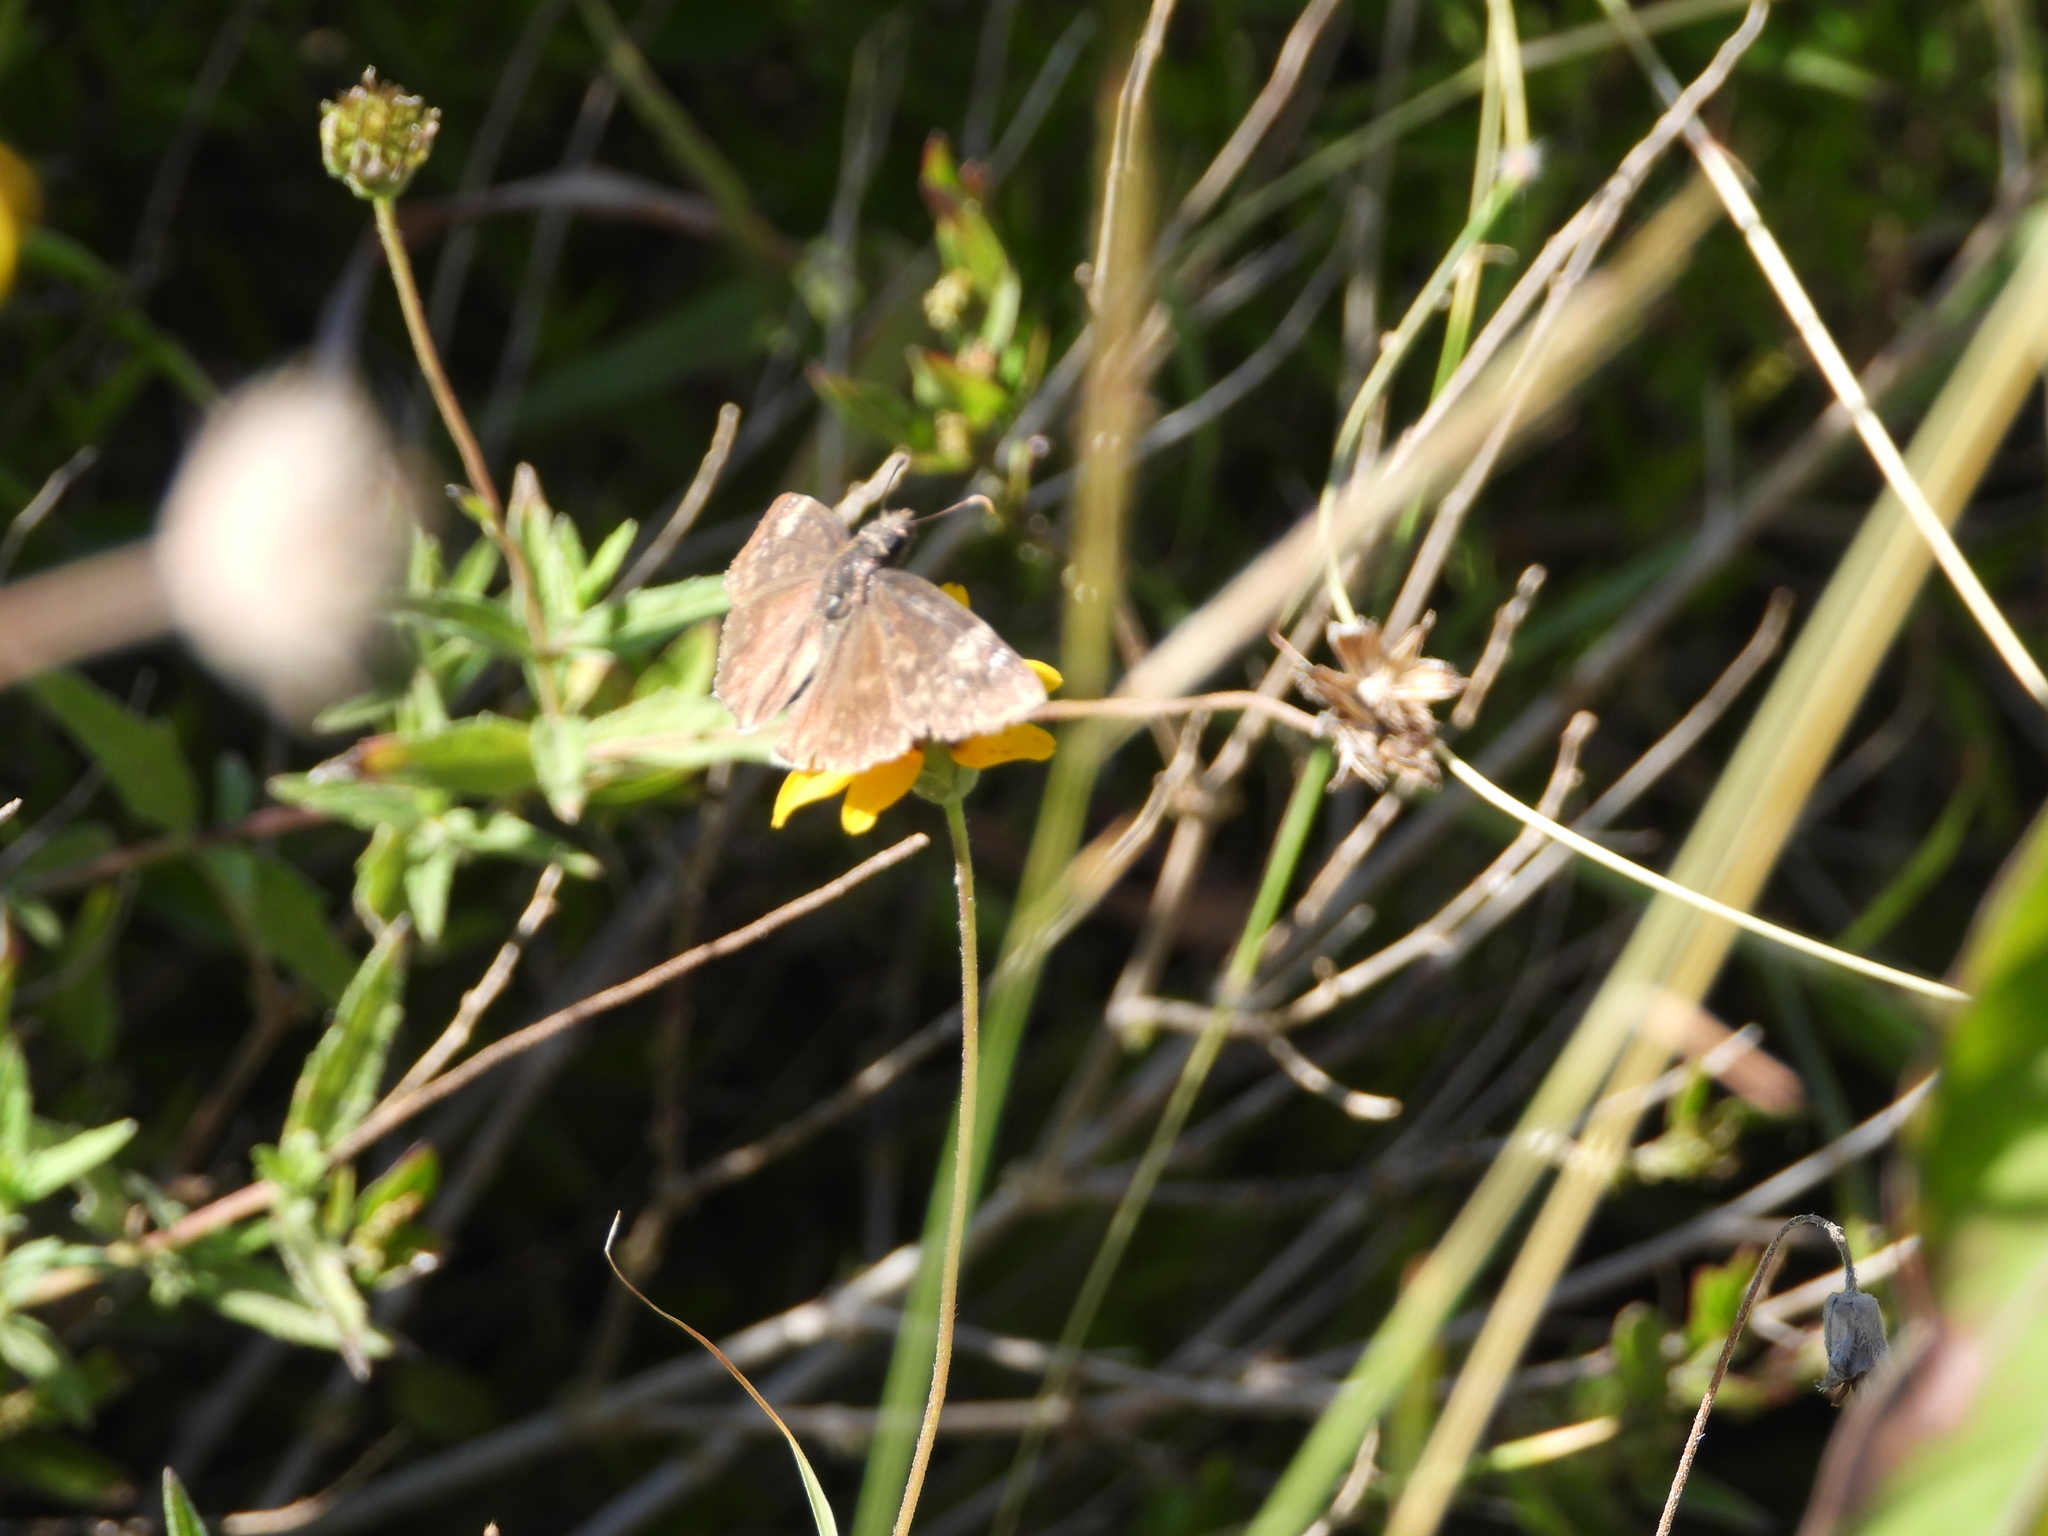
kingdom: Animalia
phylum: Arthropoda
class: Insecta
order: Lepidoptera
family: Hesperiidae
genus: Erynnis
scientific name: Erynnis funeralis
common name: Funereal duskywing
